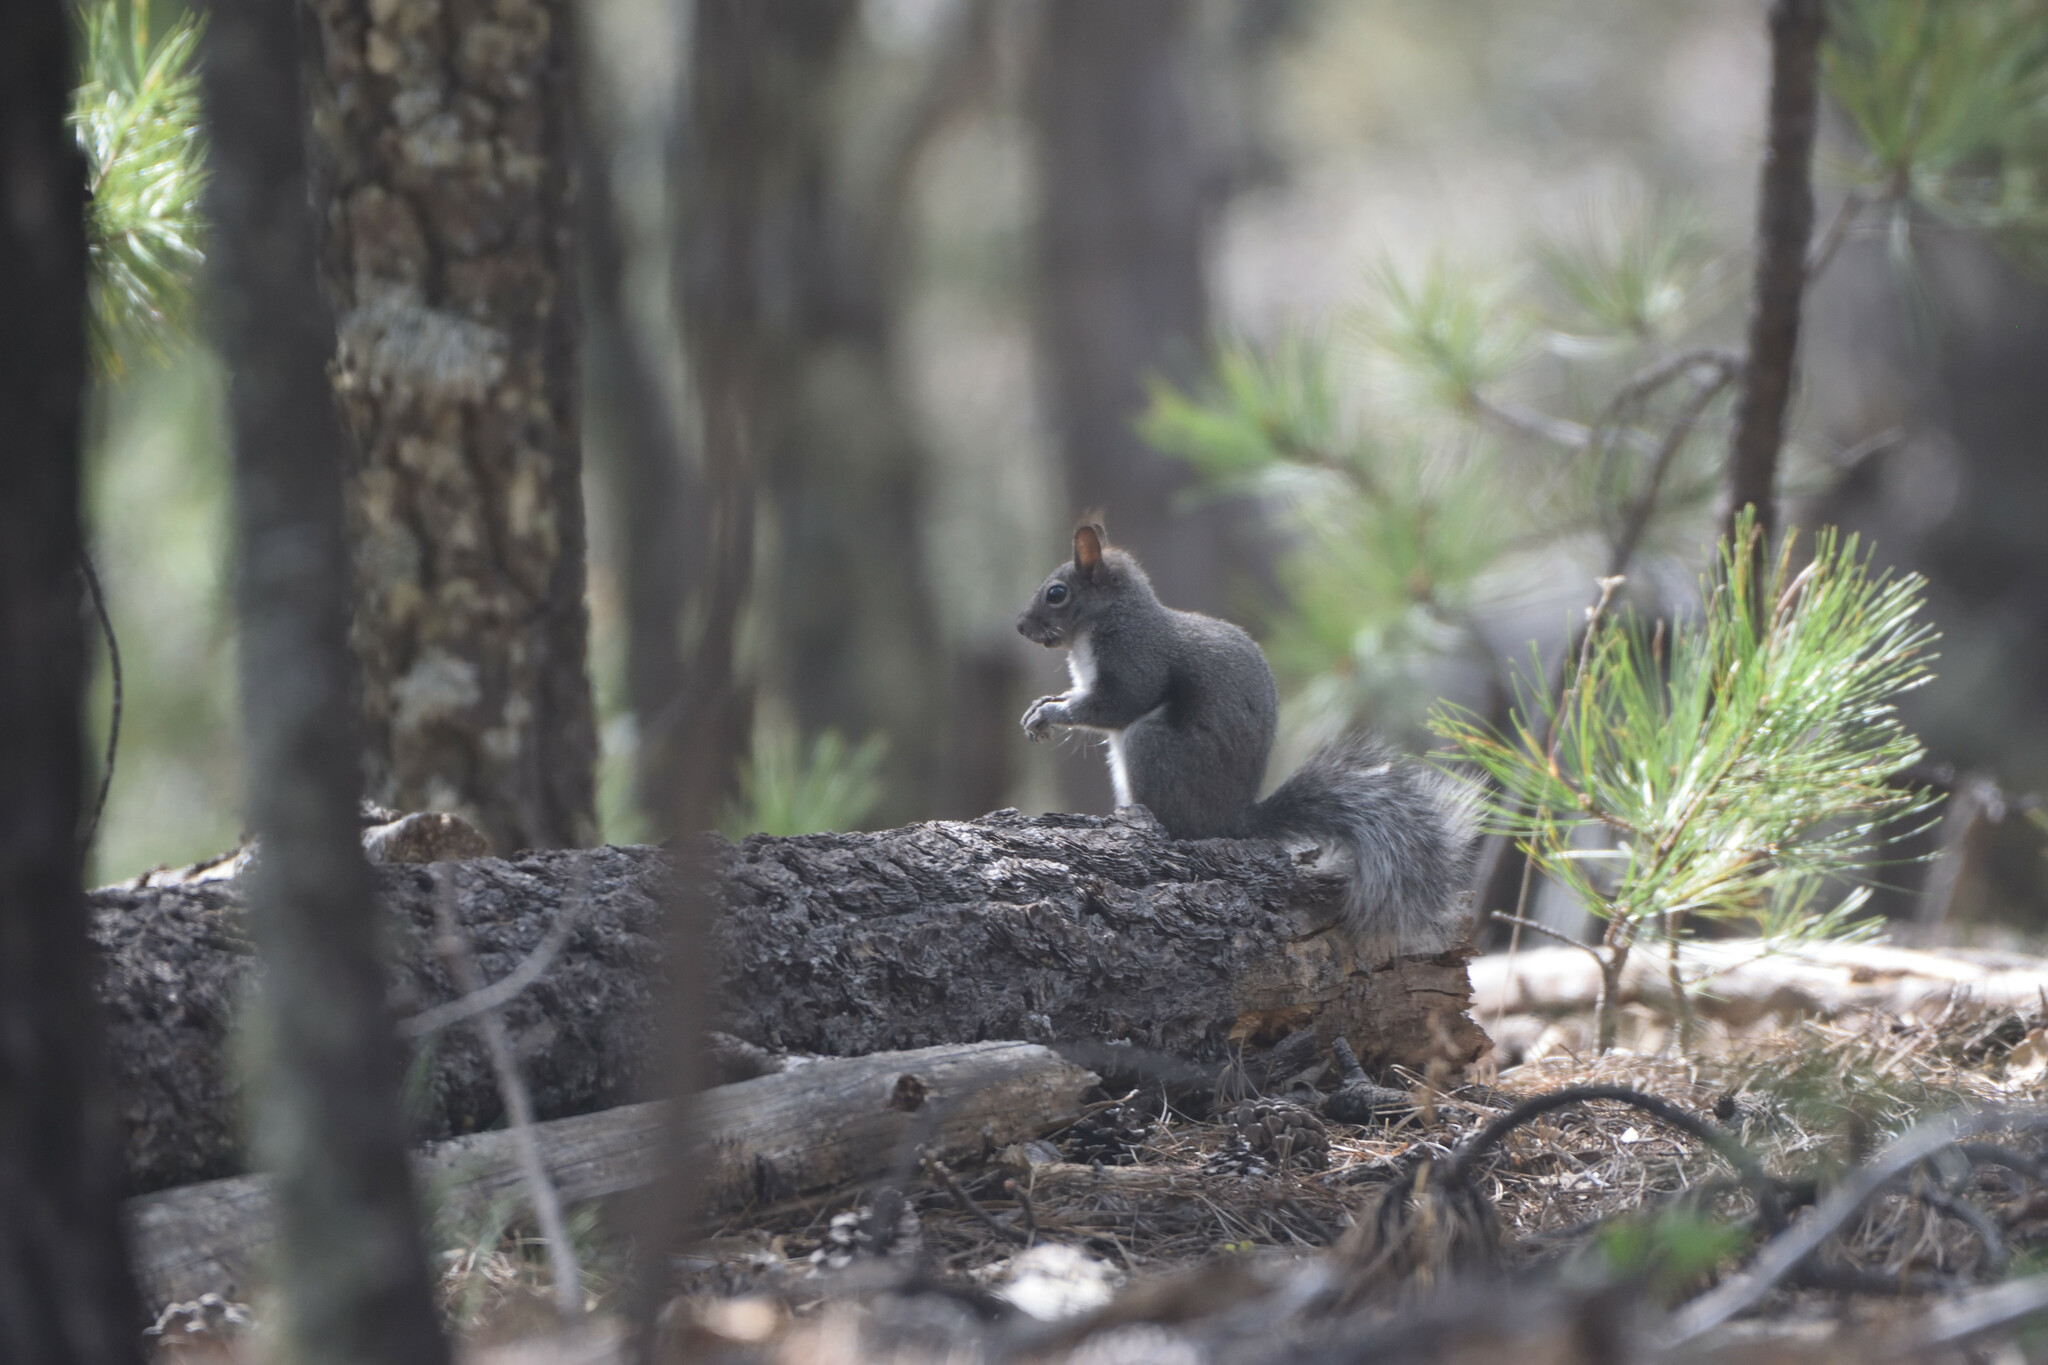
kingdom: Animalia
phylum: Chordata
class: Mammalia
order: Rodentia
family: Sciuridae
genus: Sciurus
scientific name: Sciurus aberti
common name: Abert's squirrel
